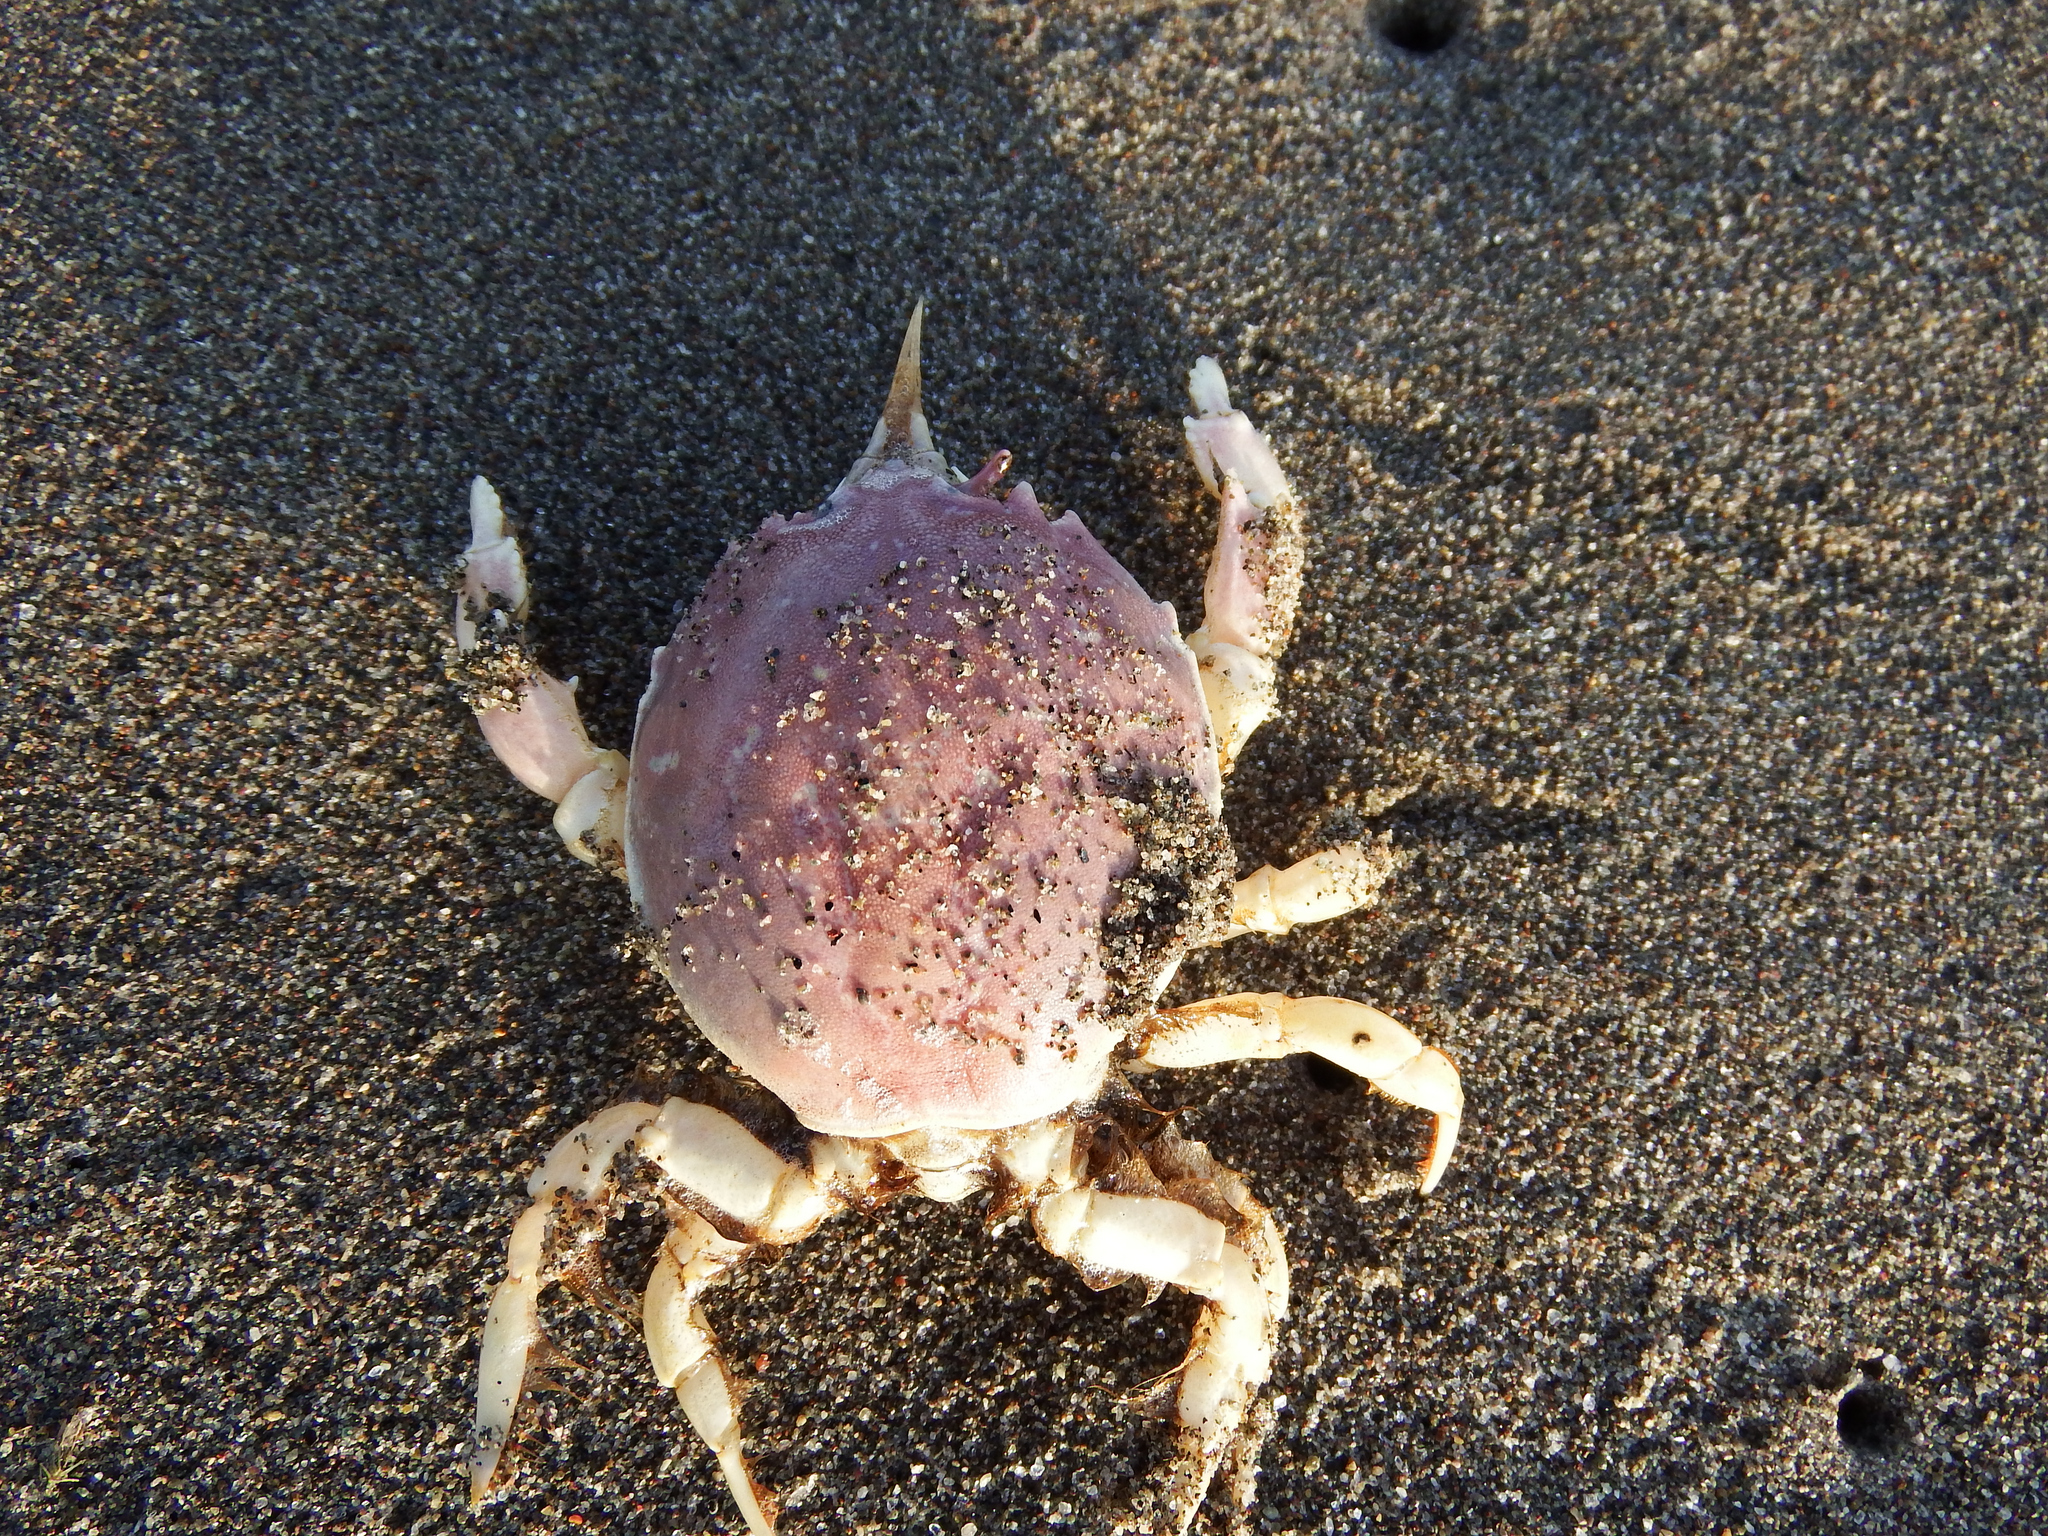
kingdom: Animalia
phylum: Arthropoda
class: Malacostraca
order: Decapoda
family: Atelecyclidae
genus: Pseudocorystes
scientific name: Pseudocorystes sicarius
